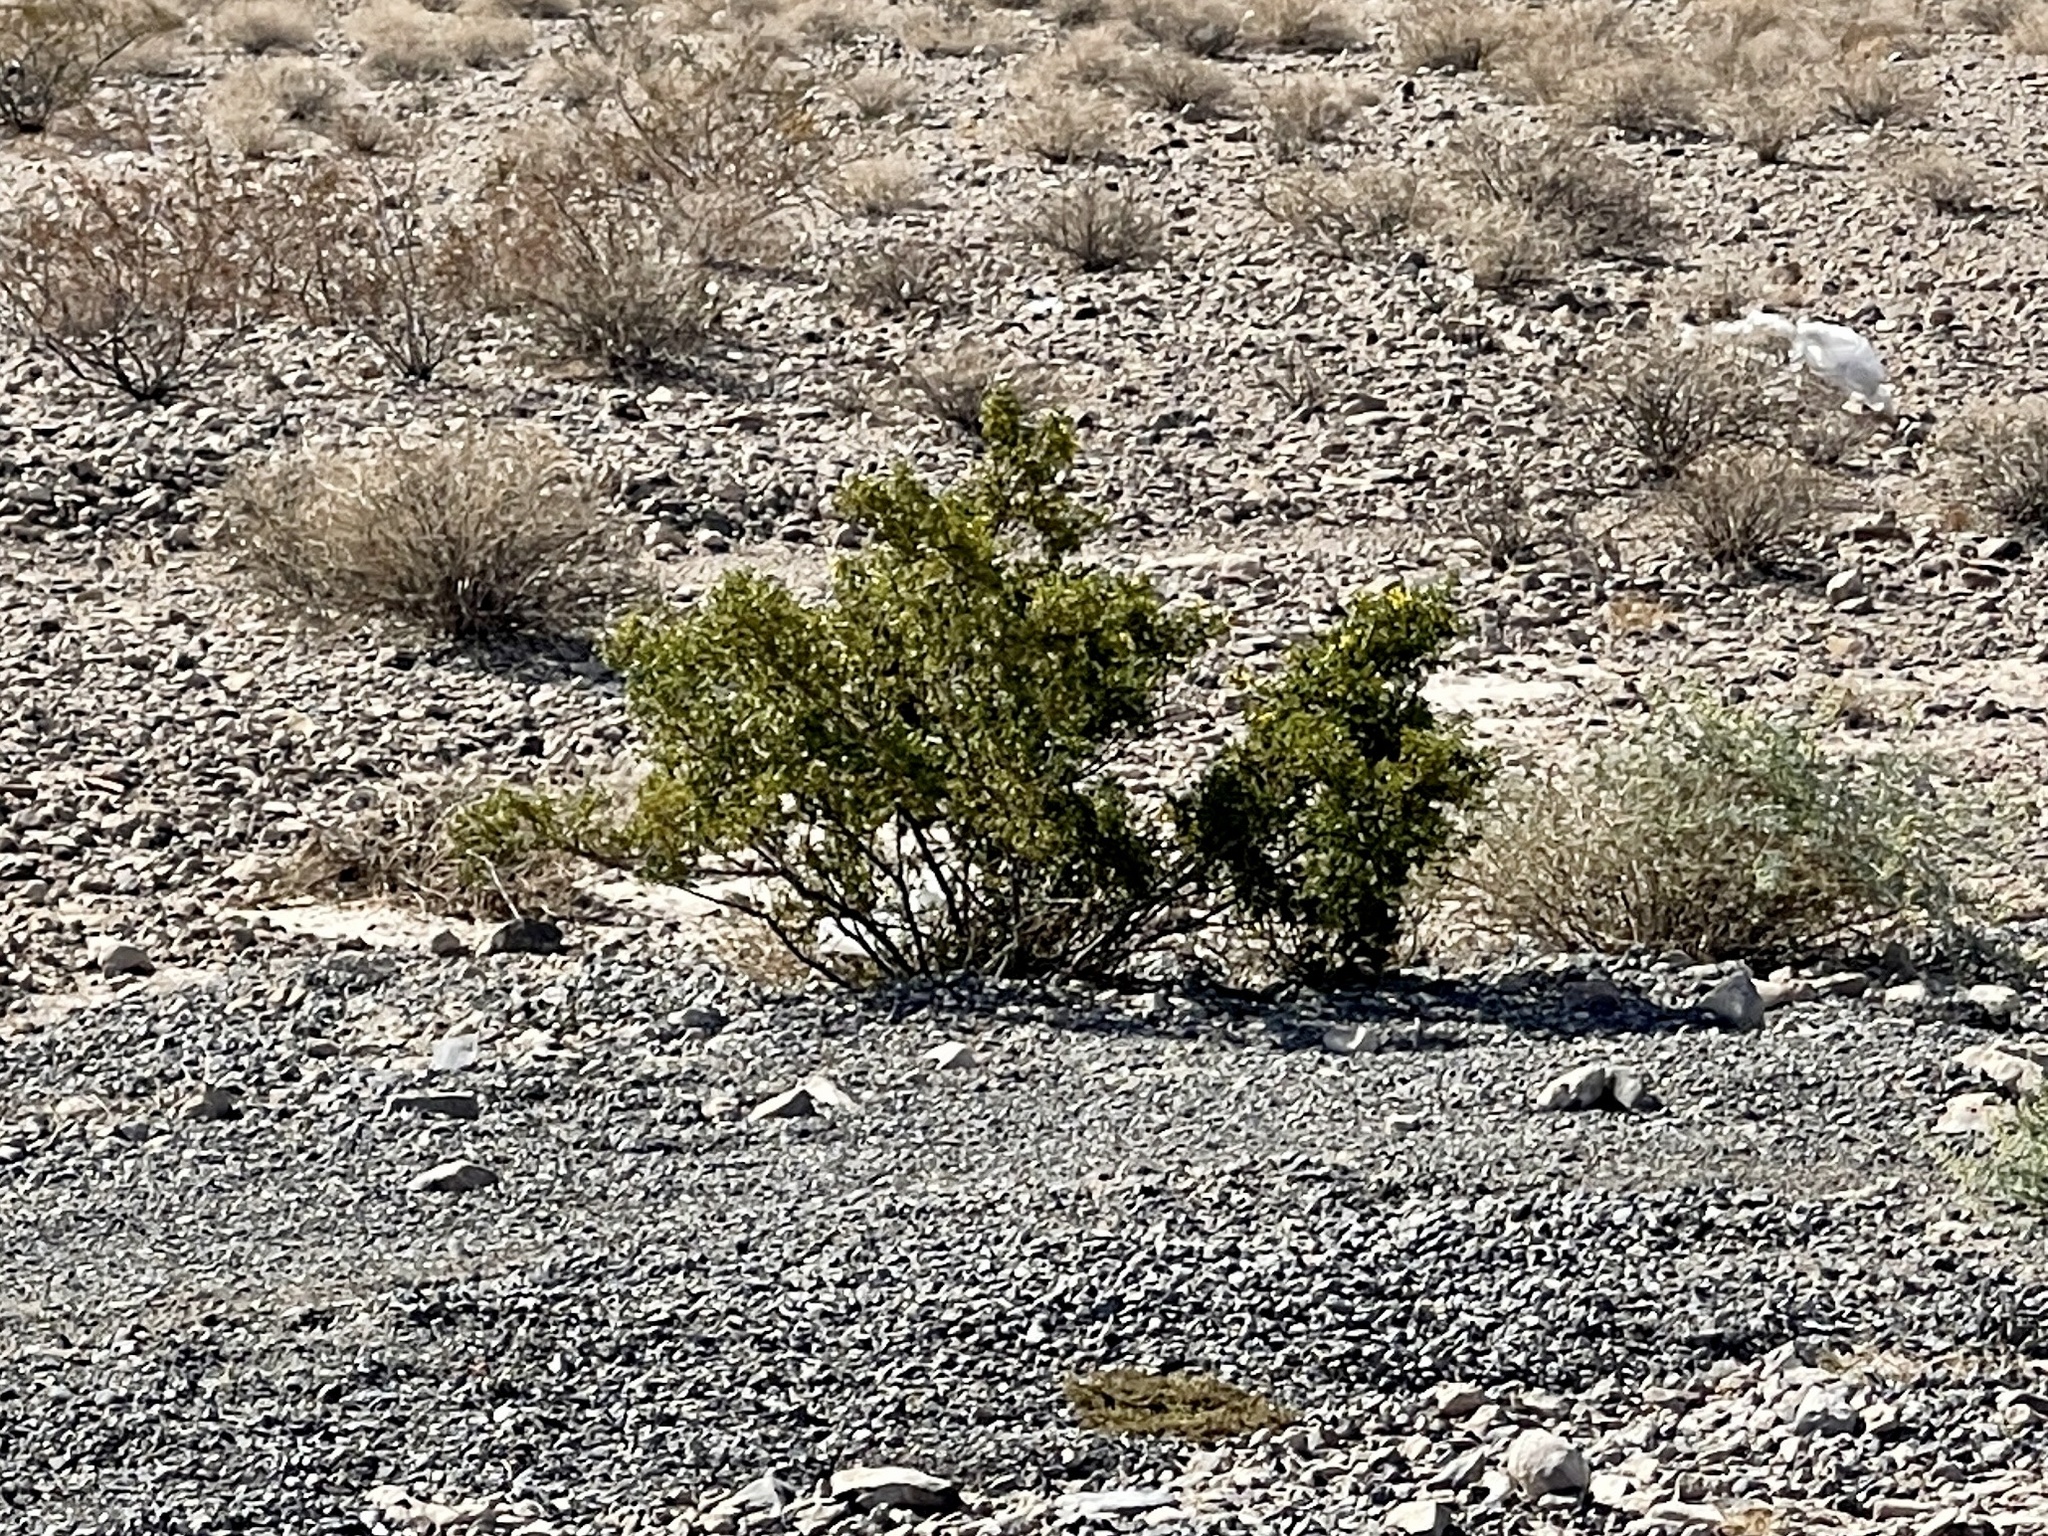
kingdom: Plantae
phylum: Tracheophyta
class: Magnoliopsida
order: Zygophyllales
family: Zygophyllaceae
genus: Larrea
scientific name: Larrea tridentata
